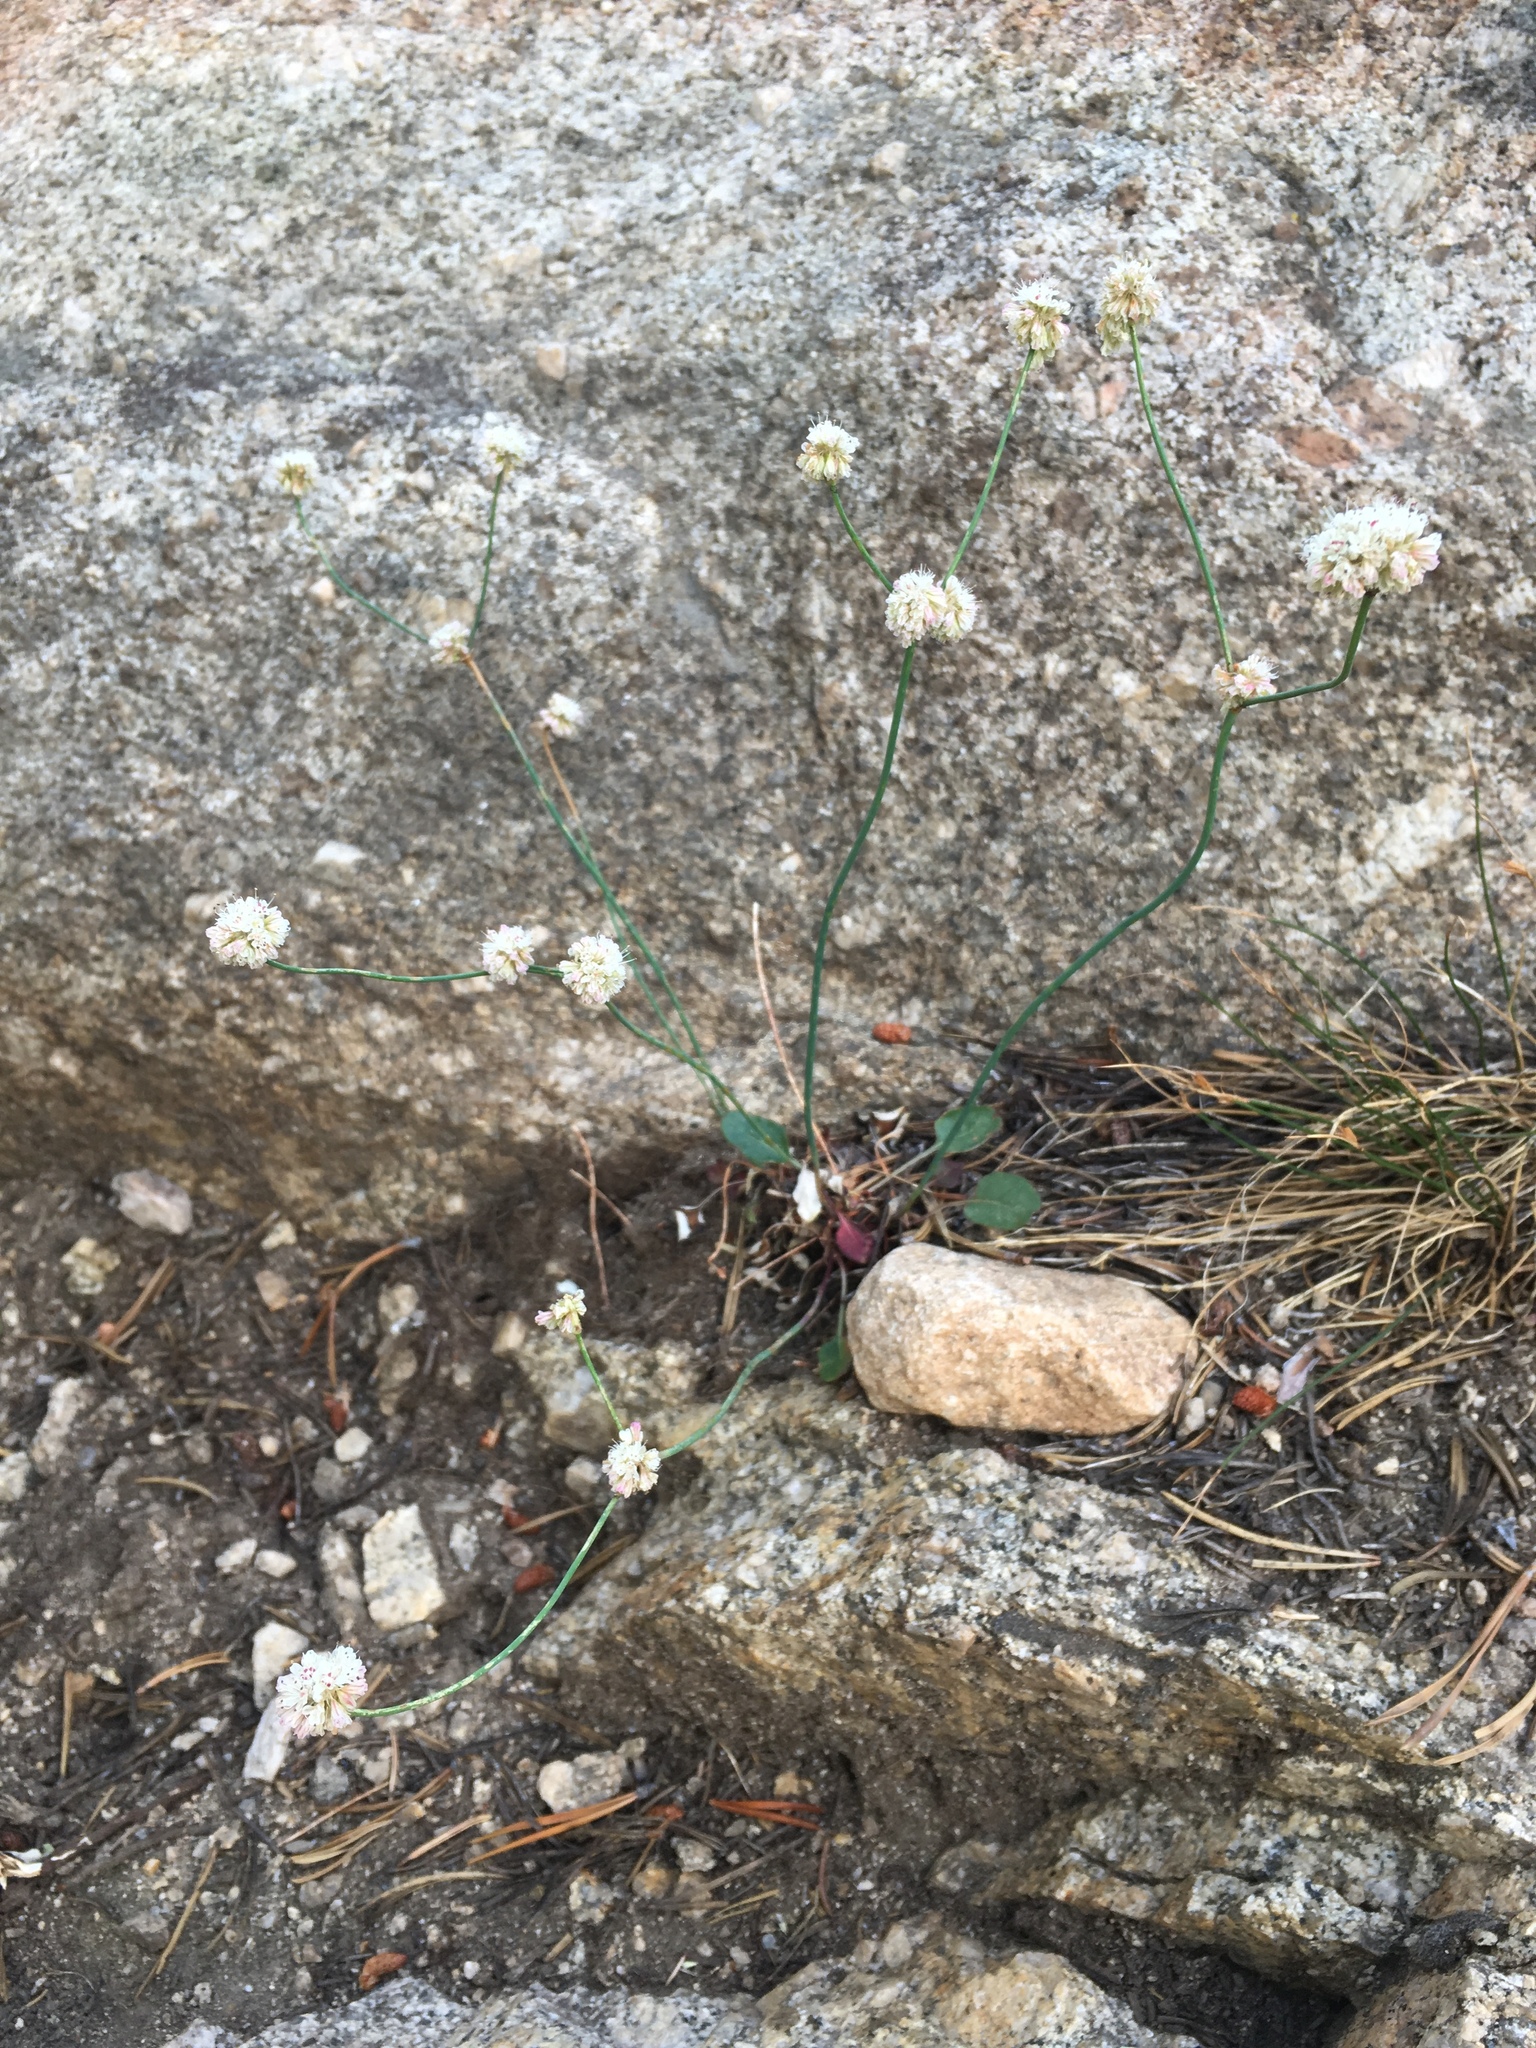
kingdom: Plantae
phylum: Tracheophyta
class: Magnoliopsida
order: Caryophyllales
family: Polygonaceae
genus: Eriogonum
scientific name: Eriogonum nudum
